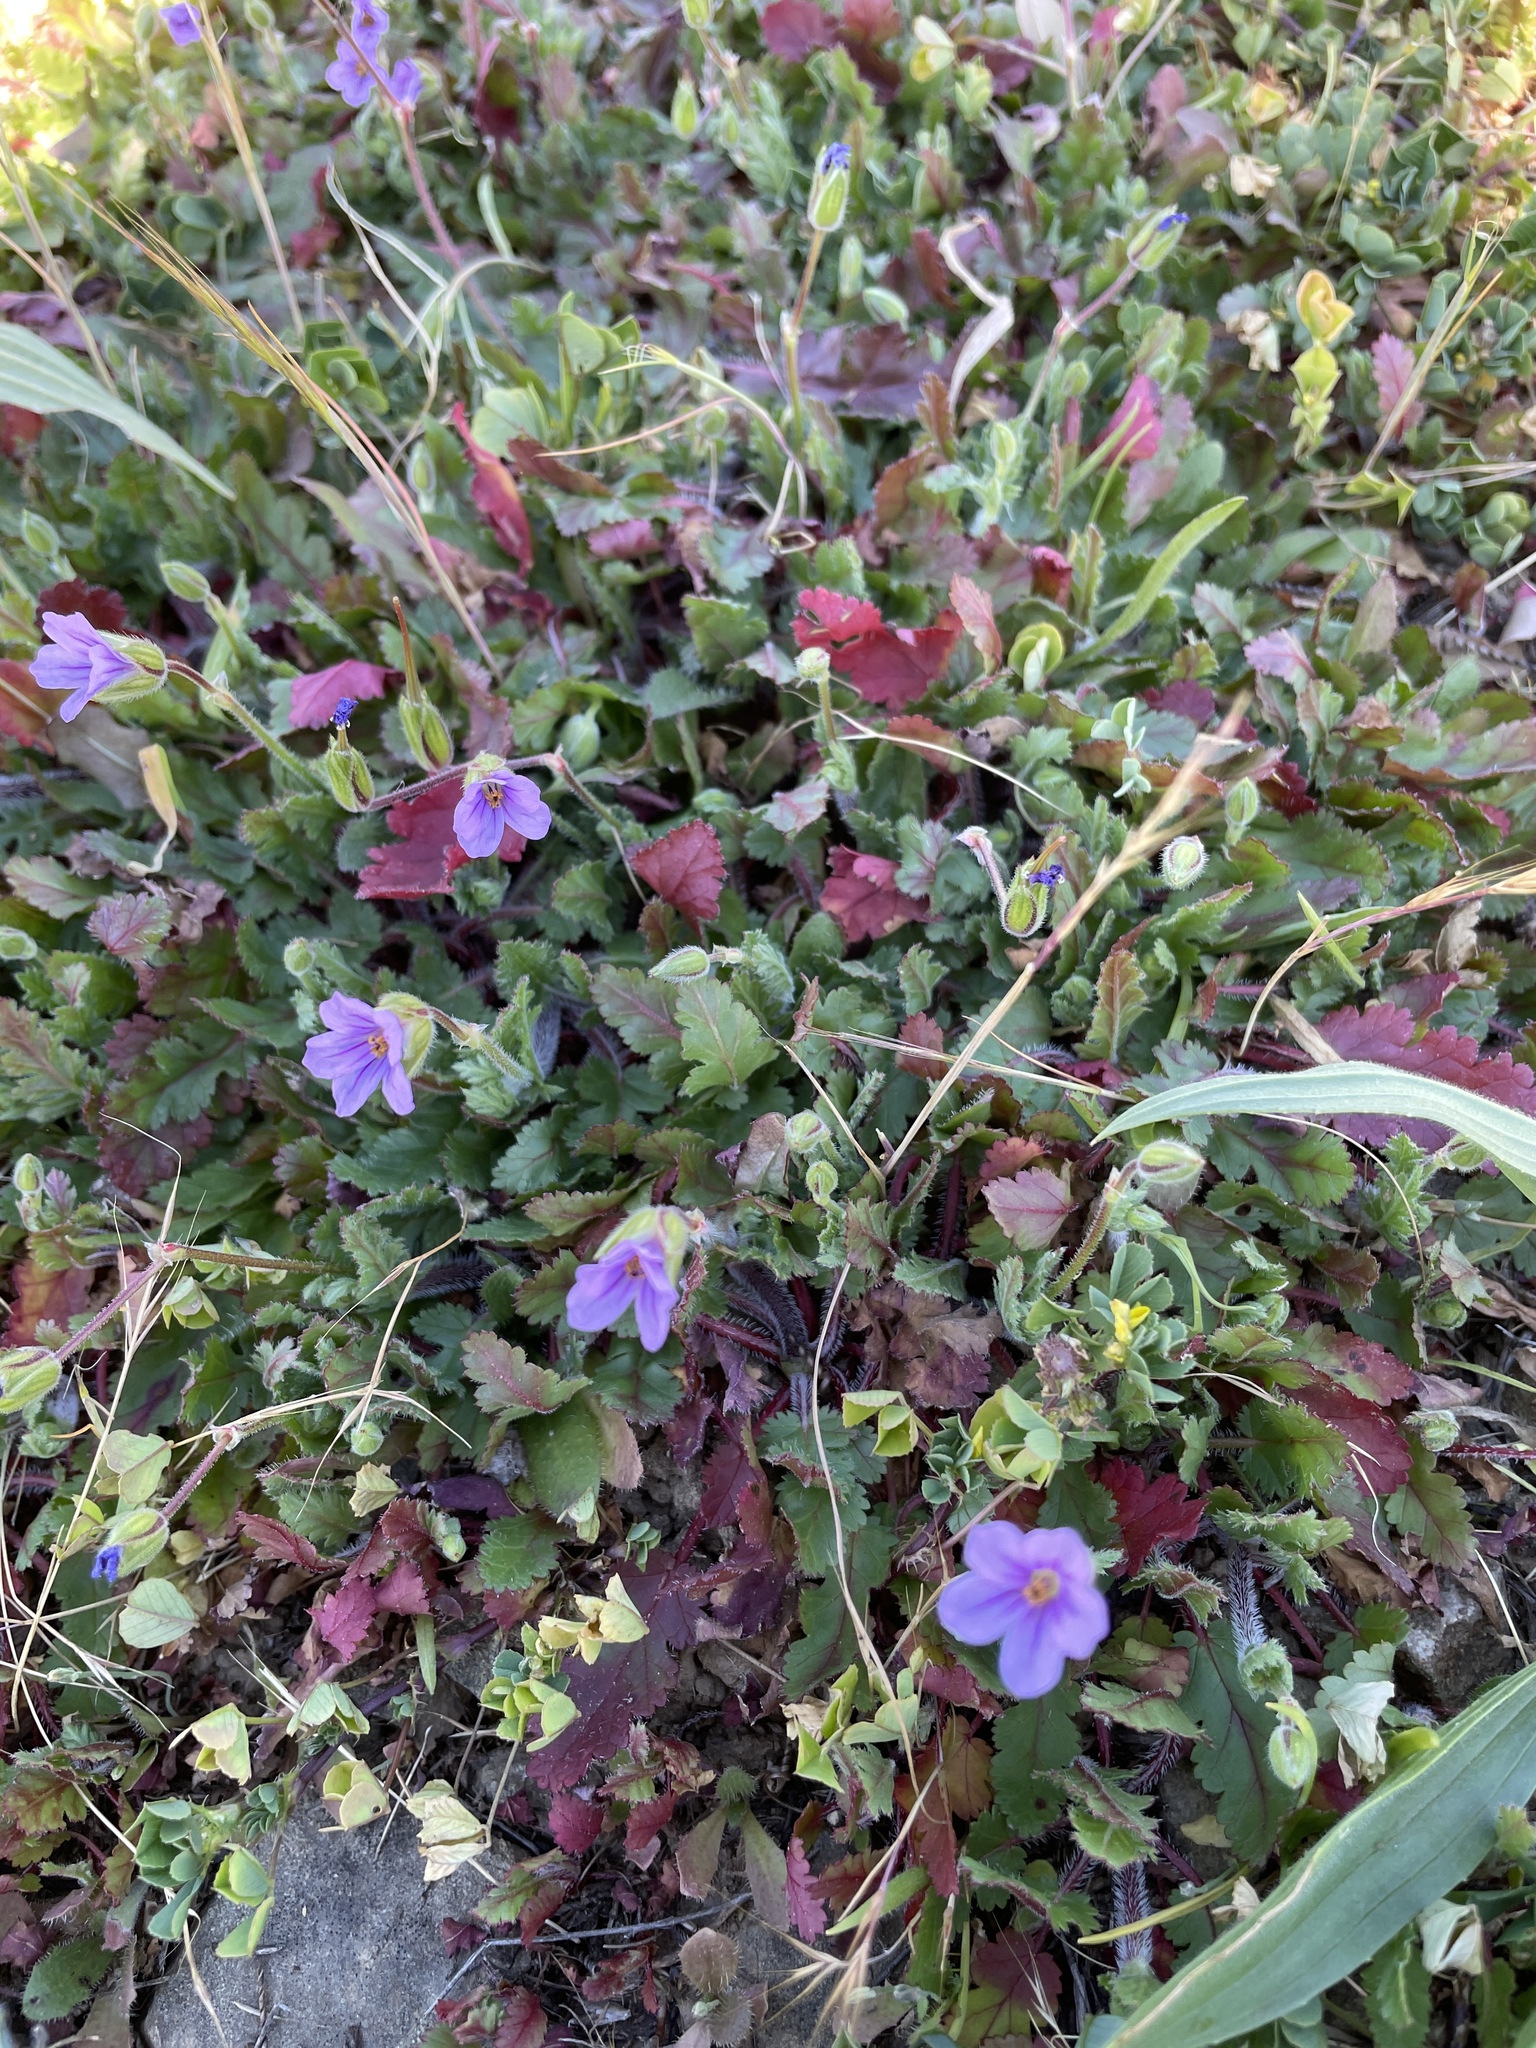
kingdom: Plantae
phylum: Tracheophyta
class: Magnoliopsida
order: Geraniales
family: Geraniaceae
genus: Erodium
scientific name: Erodium botrys
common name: Mediterranean stork's-bill
